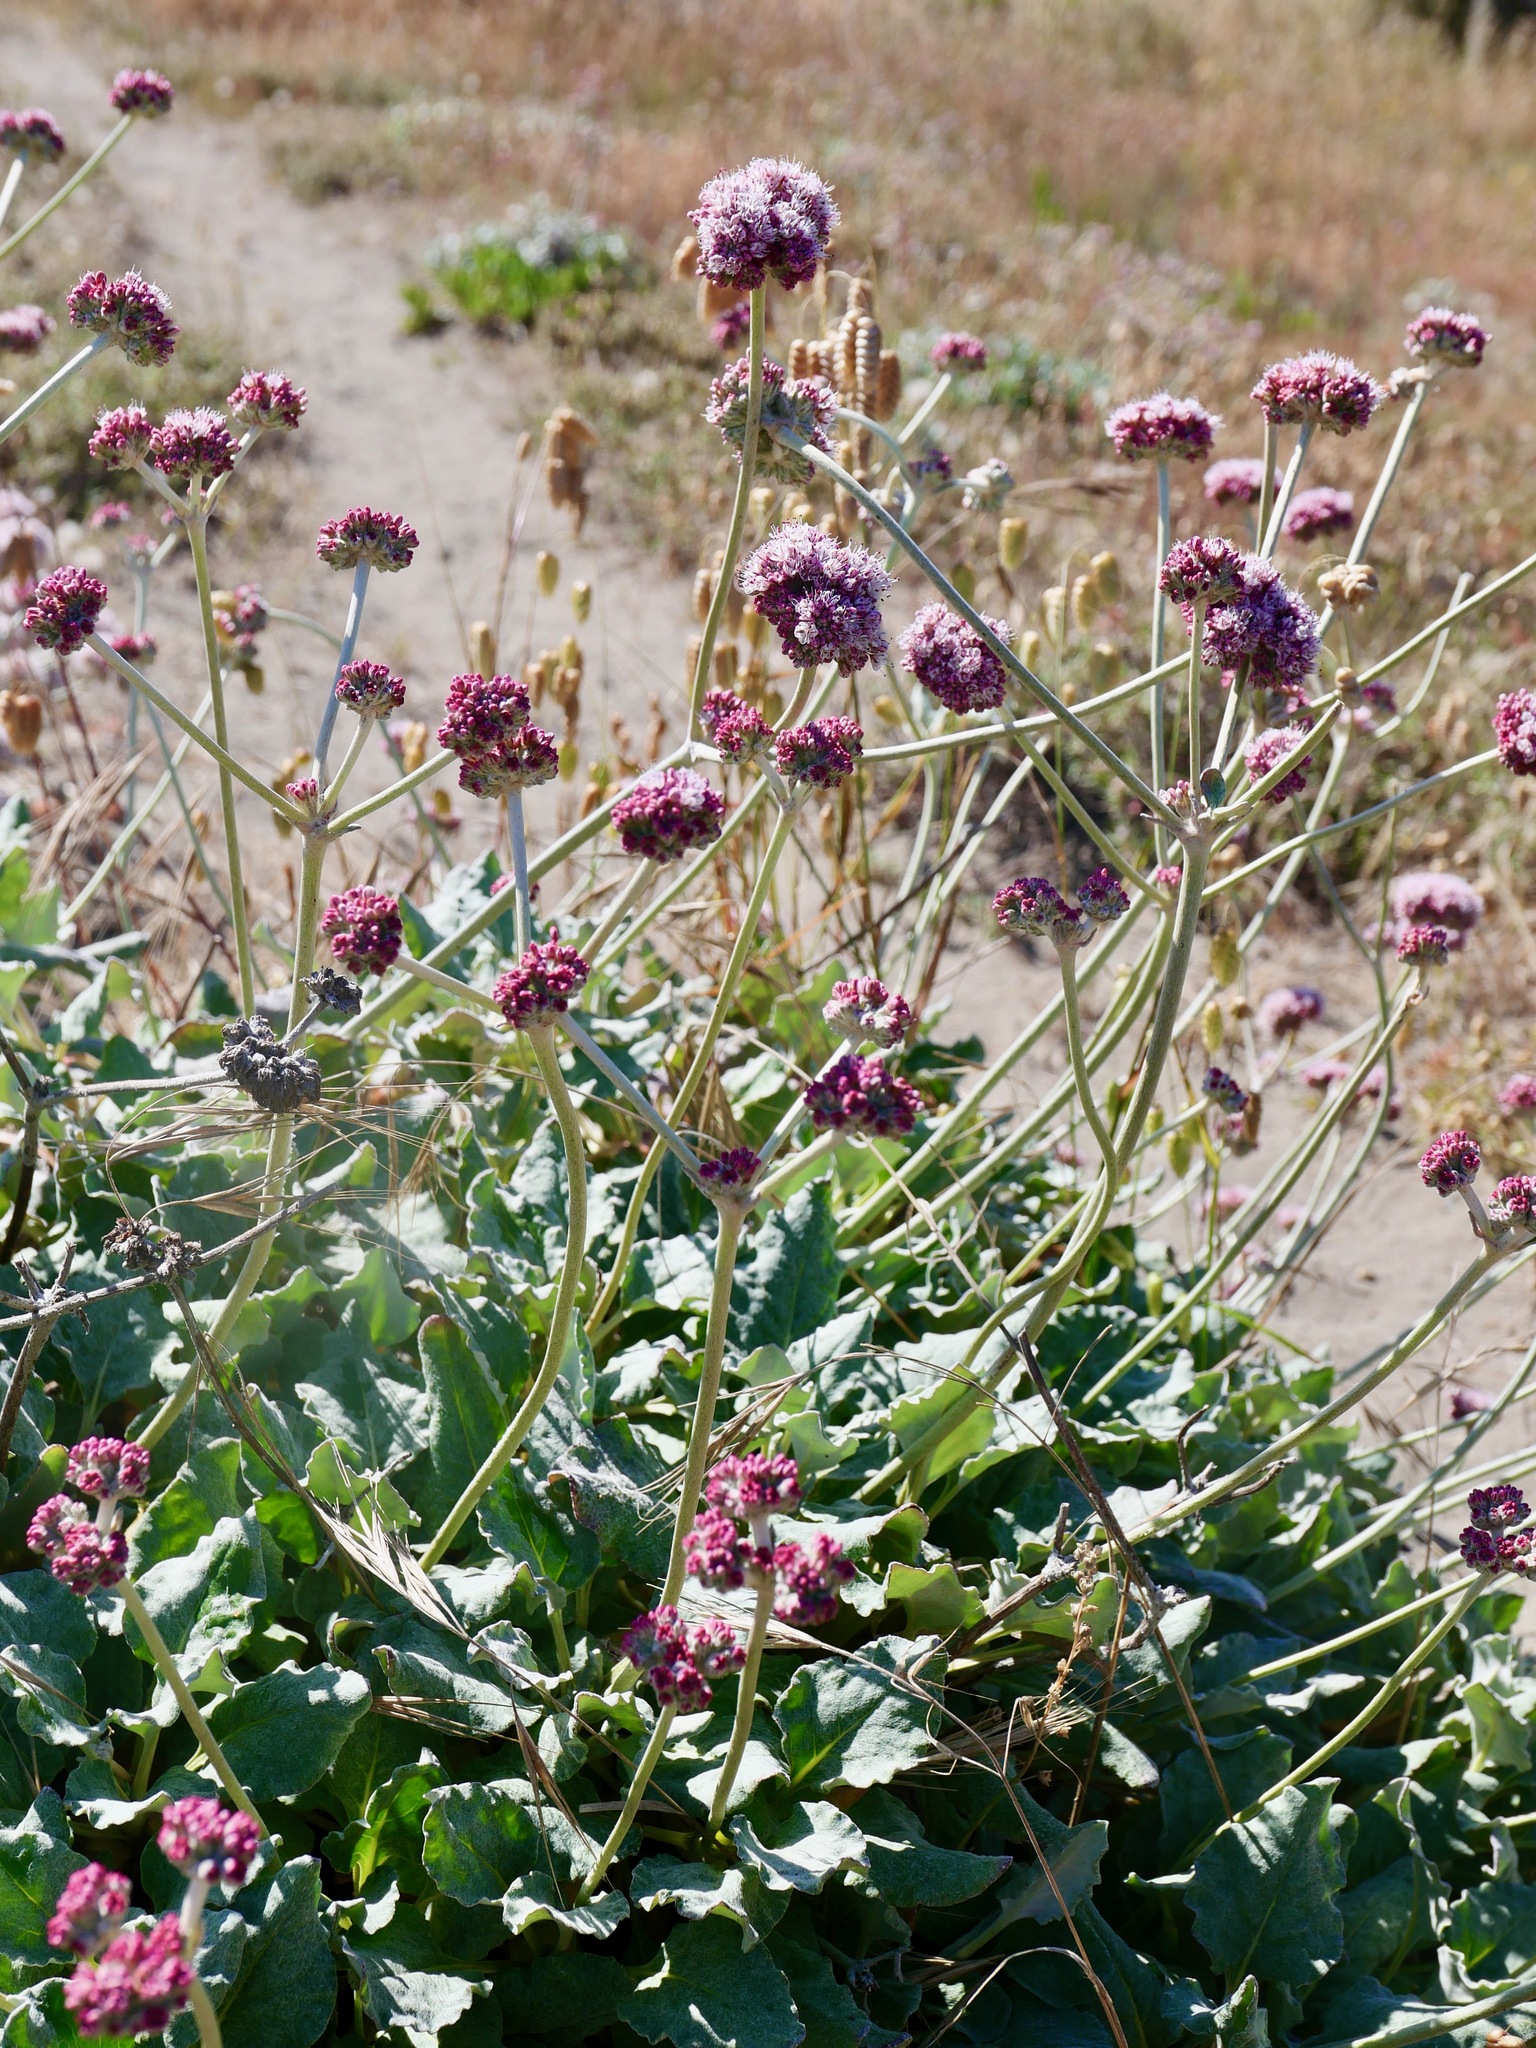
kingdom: Plantae
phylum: Tracheophyta
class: Magnoliopsida
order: Caryophyllales
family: Polygonaceae
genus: Eriogonum
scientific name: Eriogonum latifolium
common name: Seaside wild buckwheat
